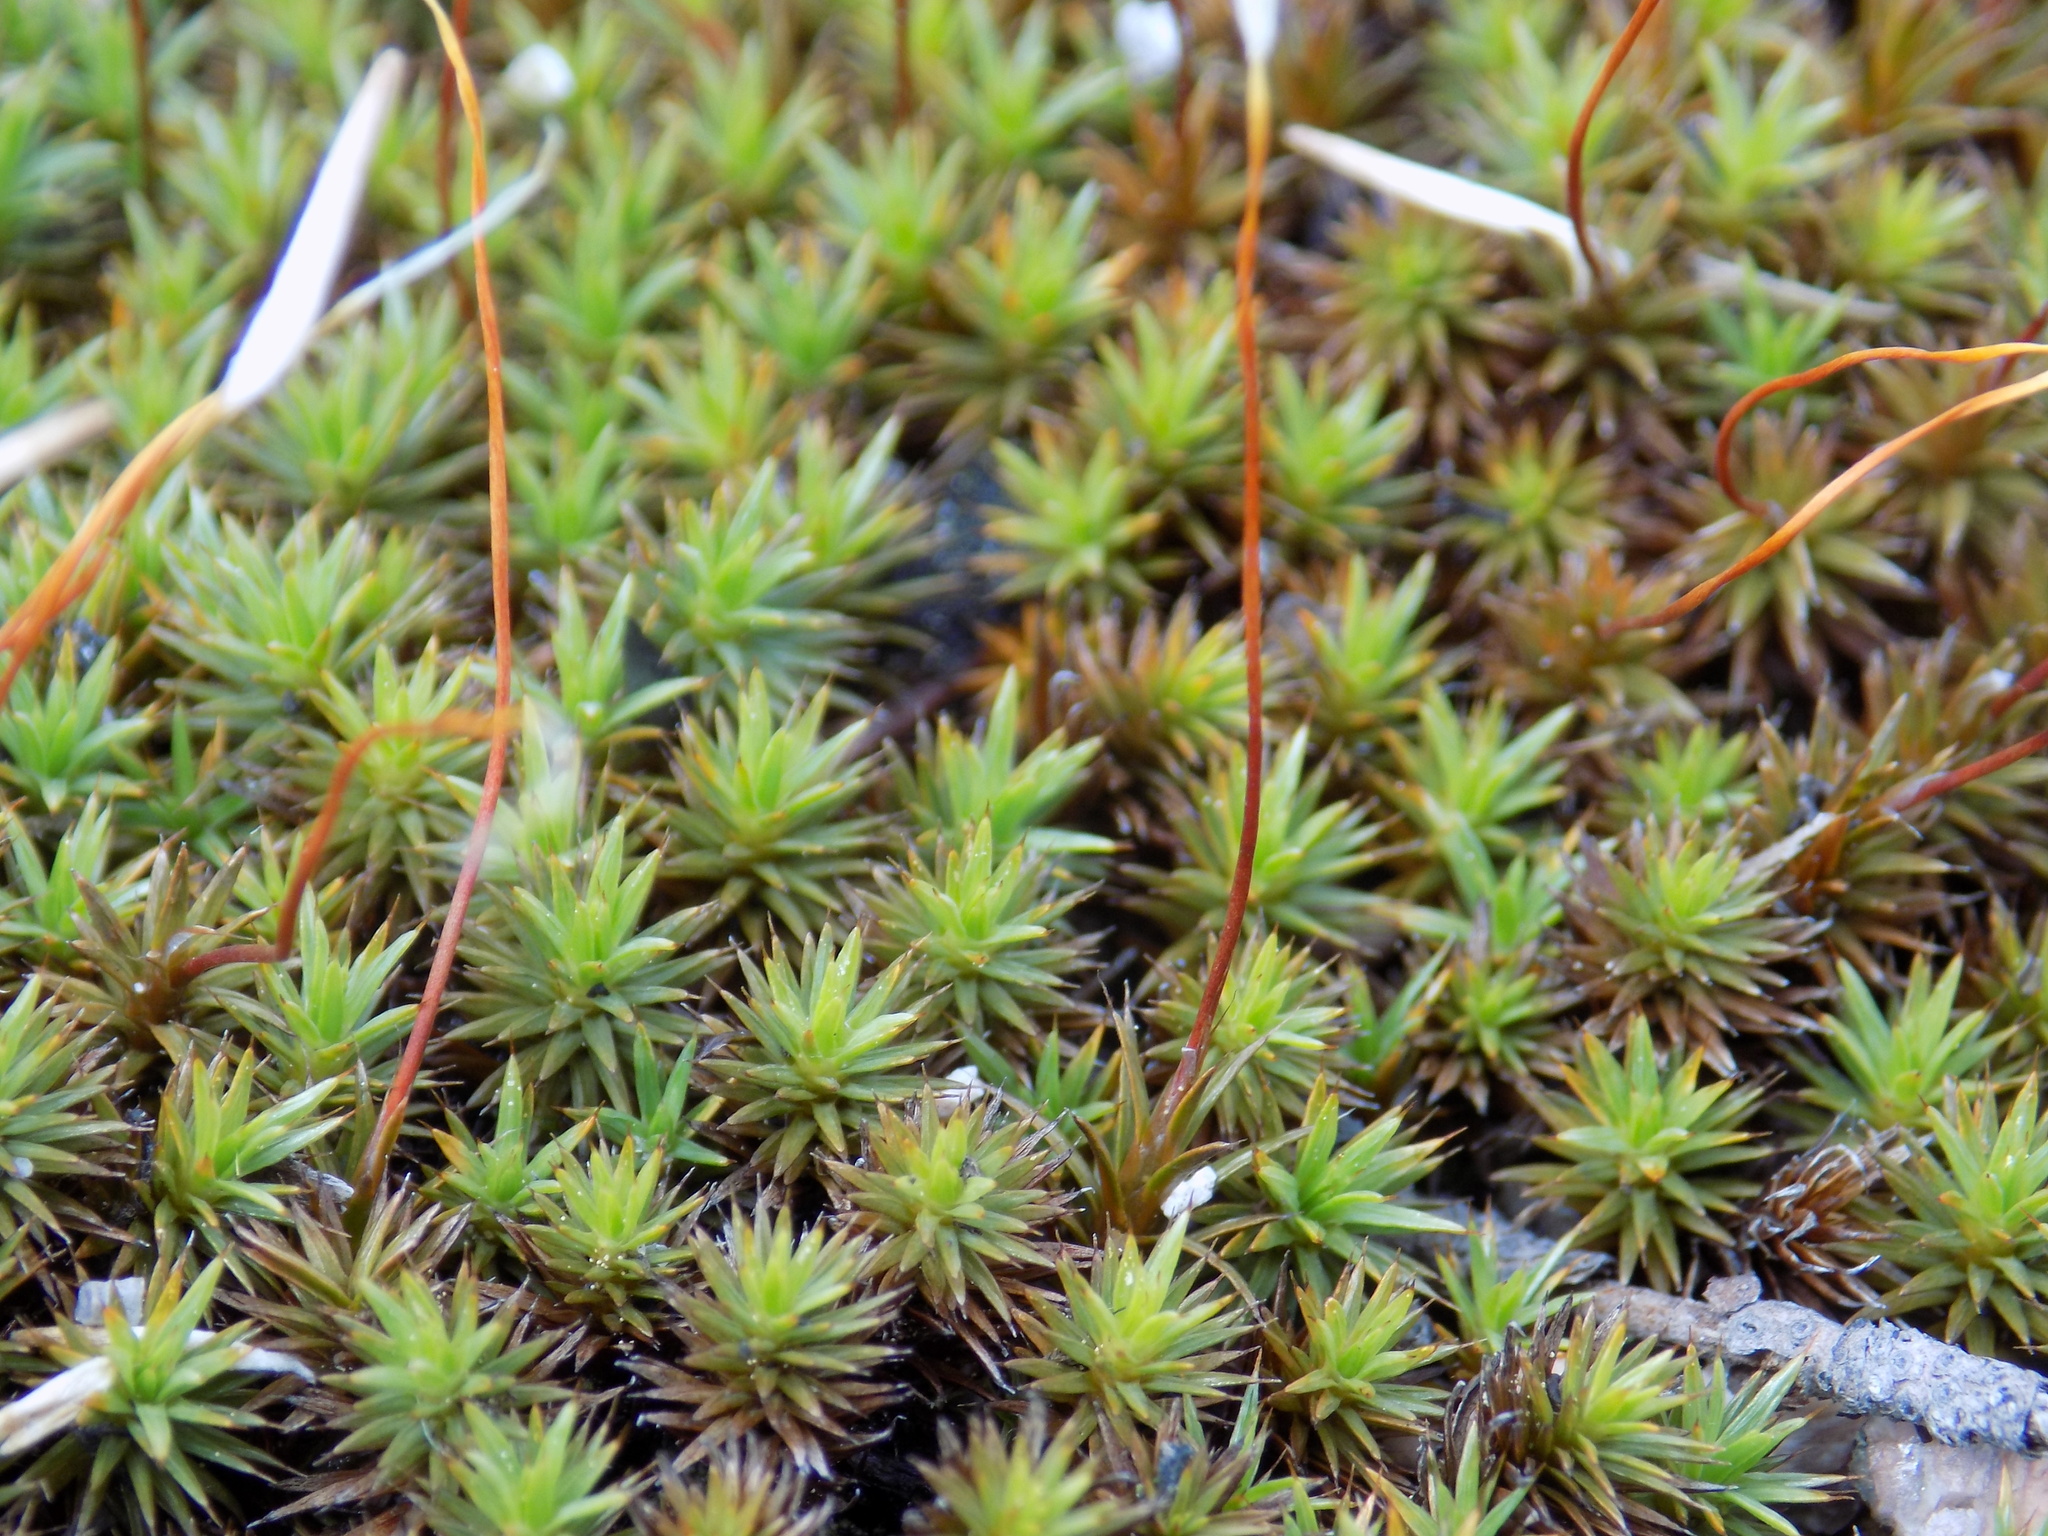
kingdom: Plantae
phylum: Bryophyta
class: Polytrichopsida
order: Polytrichales
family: Polytrichaceae
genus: Polytrichum
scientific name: Polytrichum piliferum
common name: Bristly haircap
